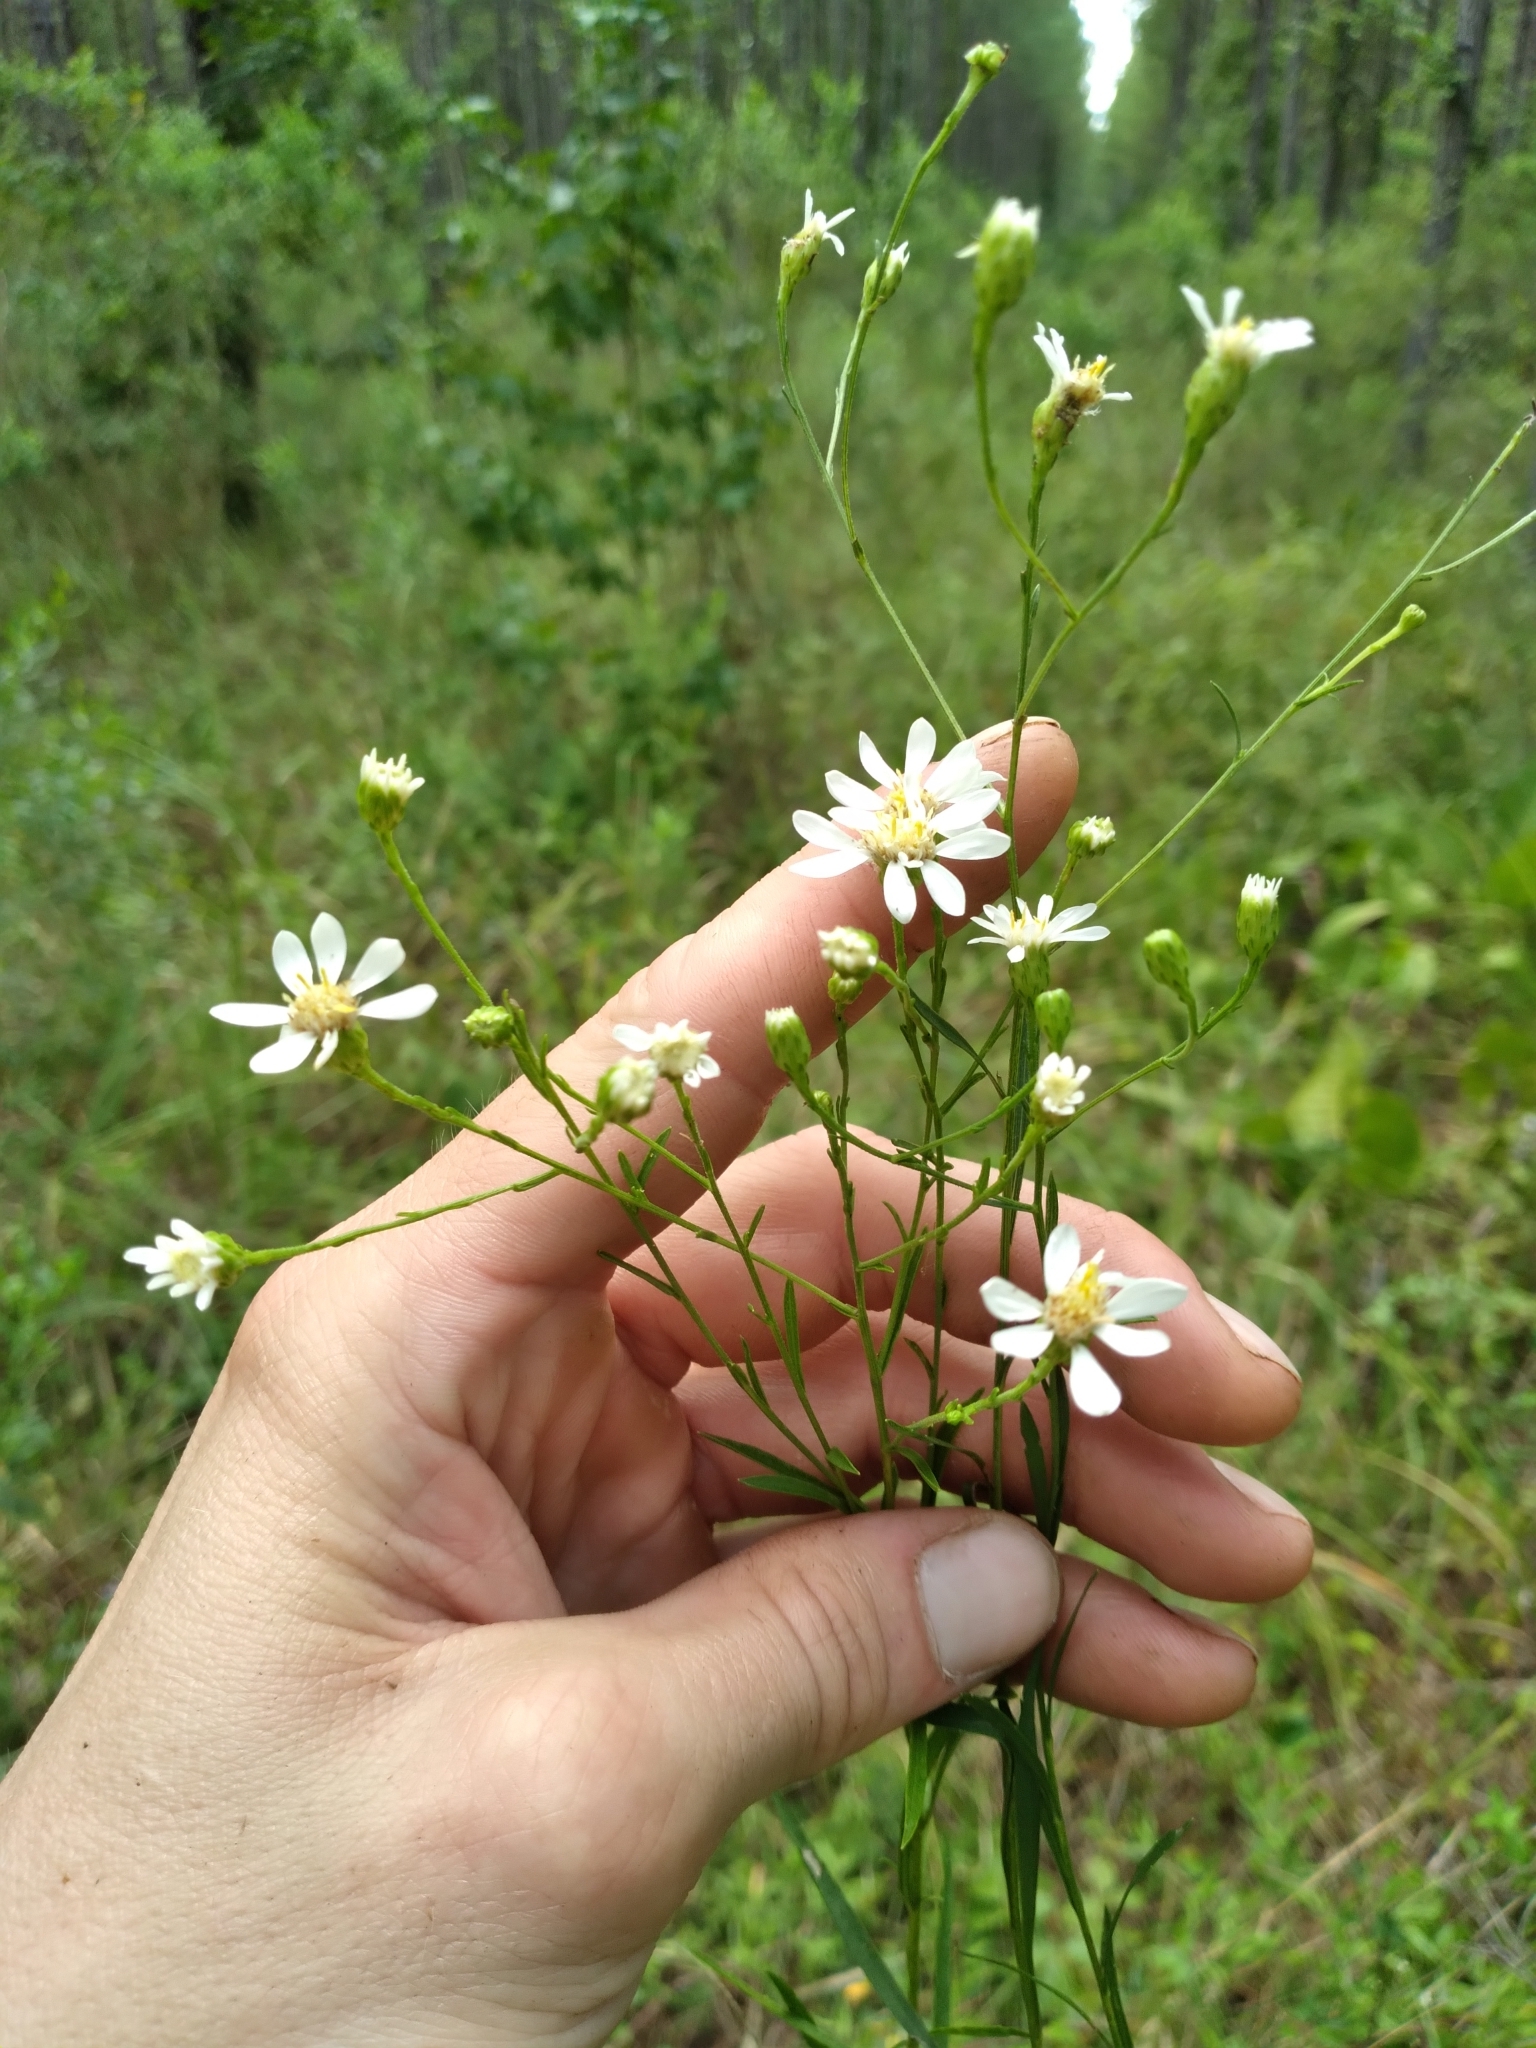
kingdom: Plantae
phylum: Tracheophyta
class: Magnoliopsida
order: Asterales
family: Asteraceae
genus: Solidago
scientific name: Solidago ptarmicoides
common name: White flat-top goldenrod
